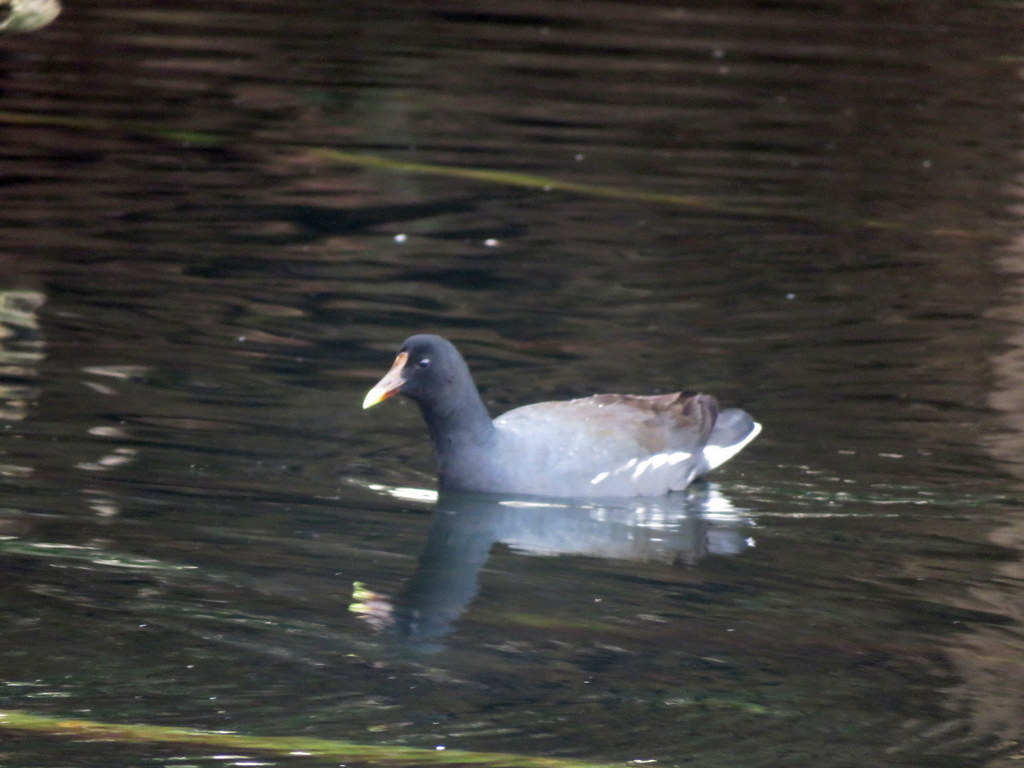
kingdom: Animalia
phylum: Chordata
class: Aves
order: Gruiformes
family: Rallidae
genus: Gallinula
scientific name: Gallinula chloropus
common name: Common moorhen
